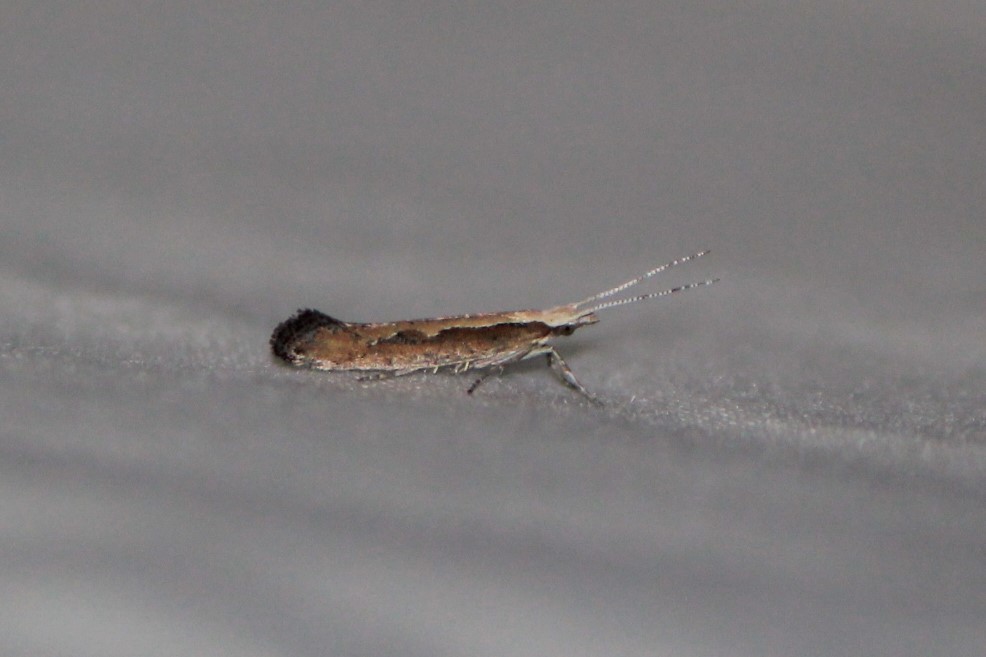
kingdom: Animalia
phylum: Arthropoda
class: Insecta
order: Lepidoptera
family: Plutellidae
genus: Plutella
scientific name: Plutella xylostella
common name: Diamond-back moth
